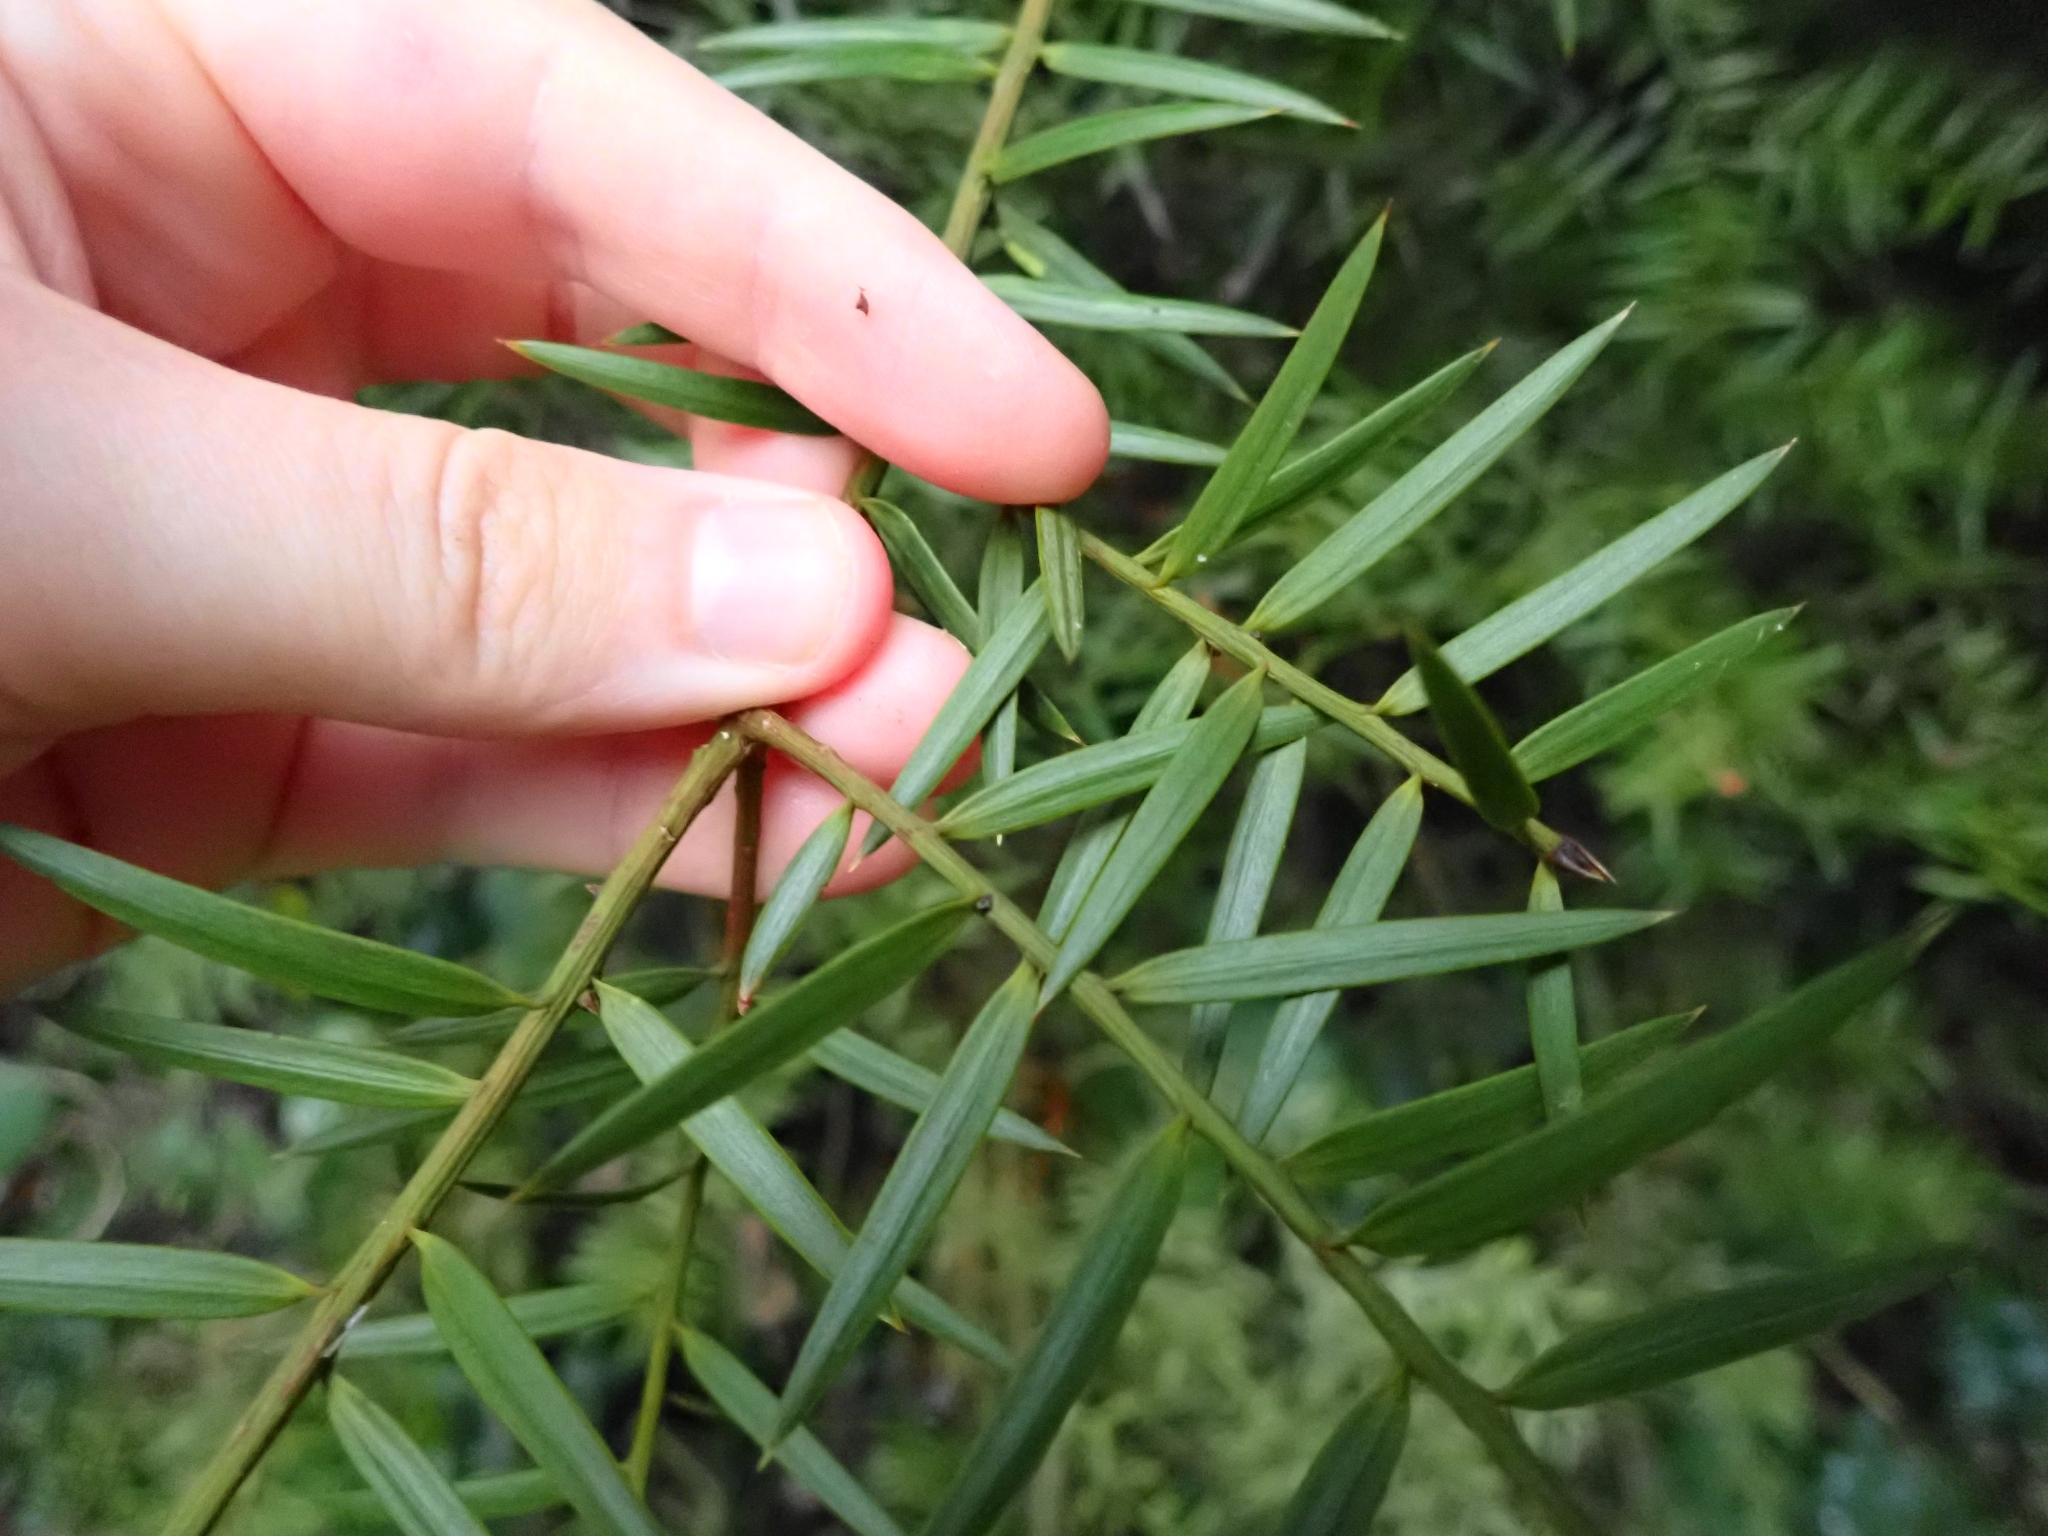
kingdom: Plantae
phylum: Tracheophyta
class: Pinopsida
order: Pinales
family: Podocarpaceae
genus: Podocarpus
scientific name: Podocarpus totara
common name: Totara
